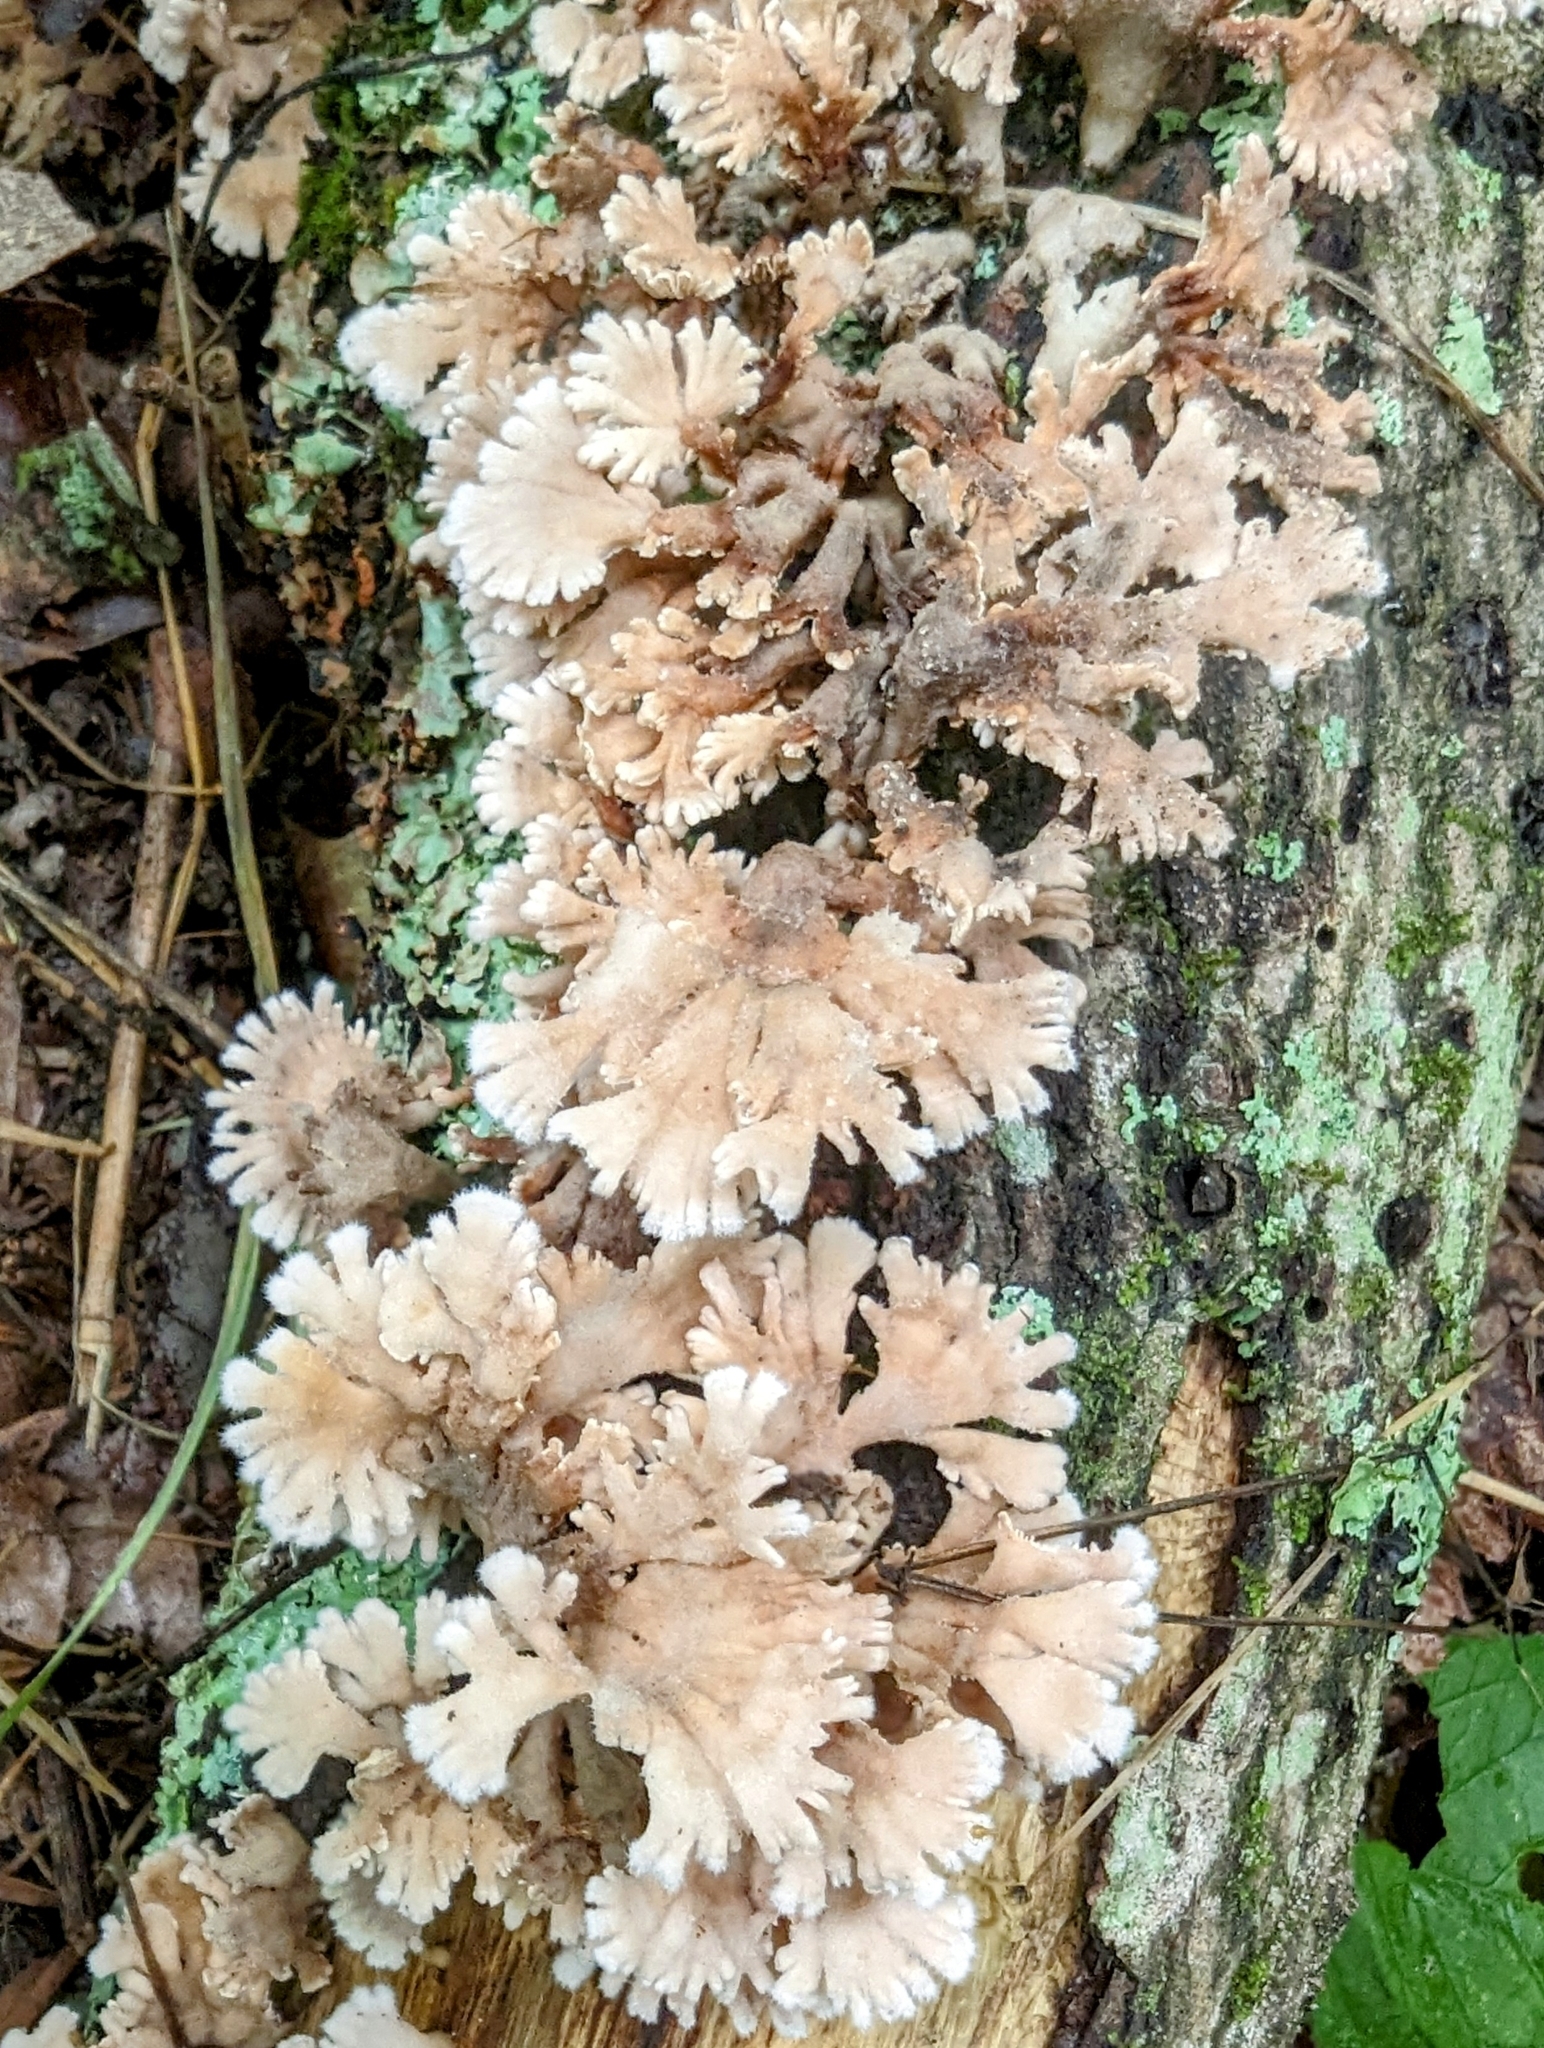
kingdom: Fungi
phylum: Basidiomycota
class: Agaricomycetes
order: Agaricales
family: Schizophyllaceae
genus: Schizophyllum
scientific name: Schizophyllum commune
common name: Common porecrust
